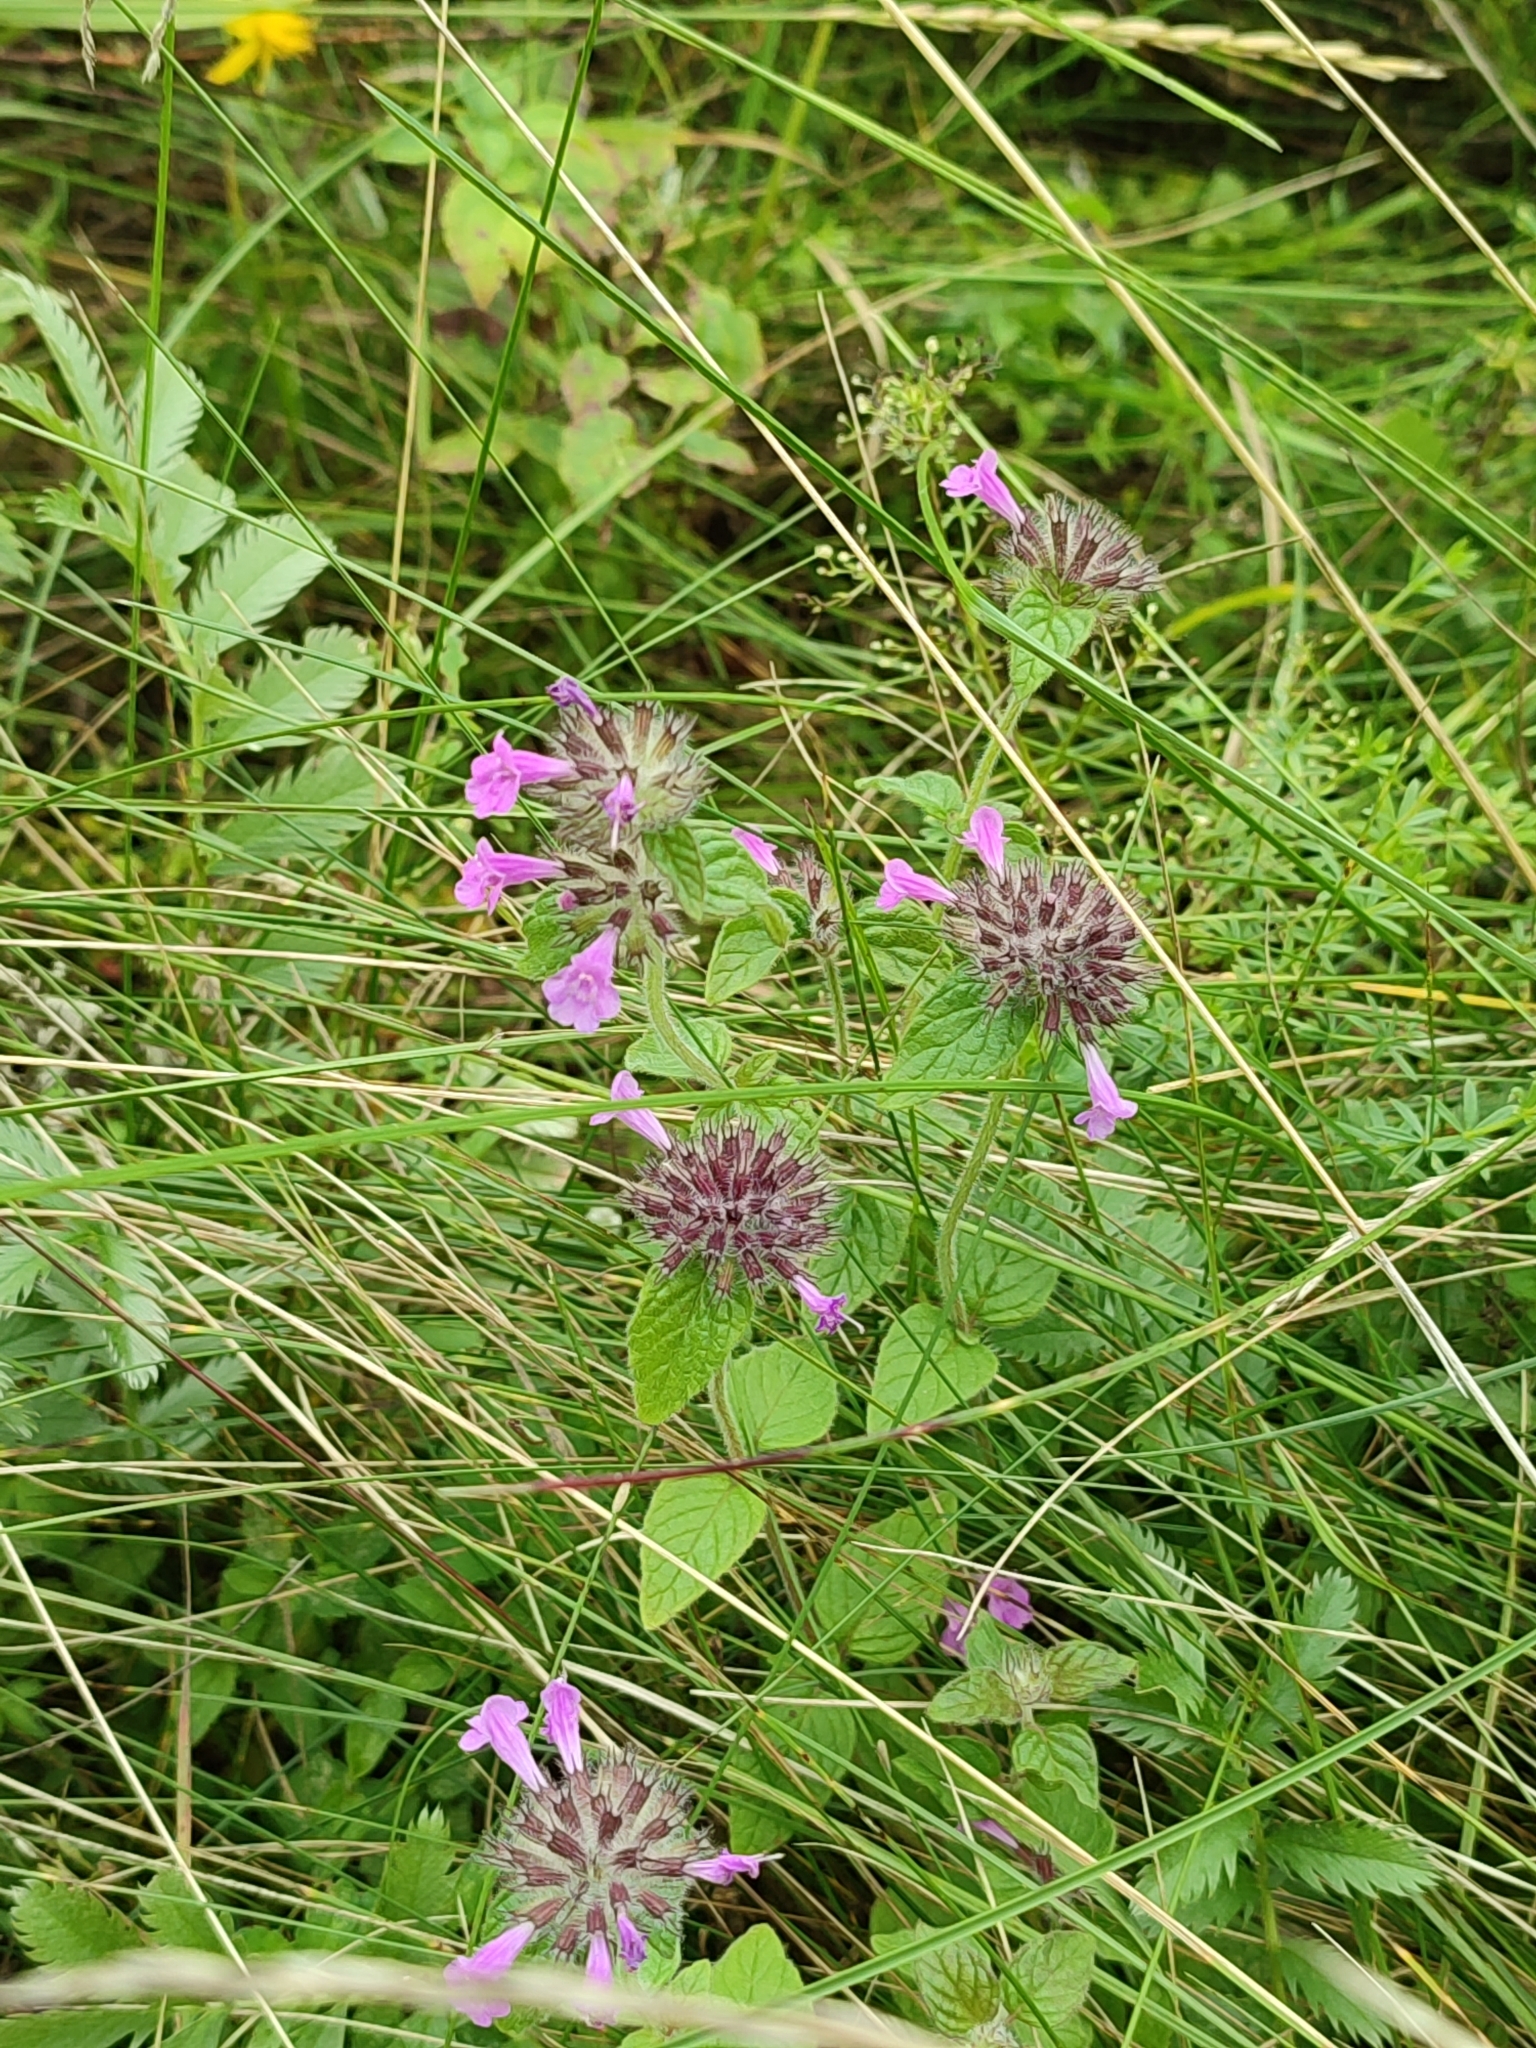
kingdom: Plantae
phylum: Tracheophyta
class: Magnoliopsida
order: Lamiales
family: Lamiaceae
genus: Clinopodium
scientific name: Clinopodium vulgare
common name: Wild basil
